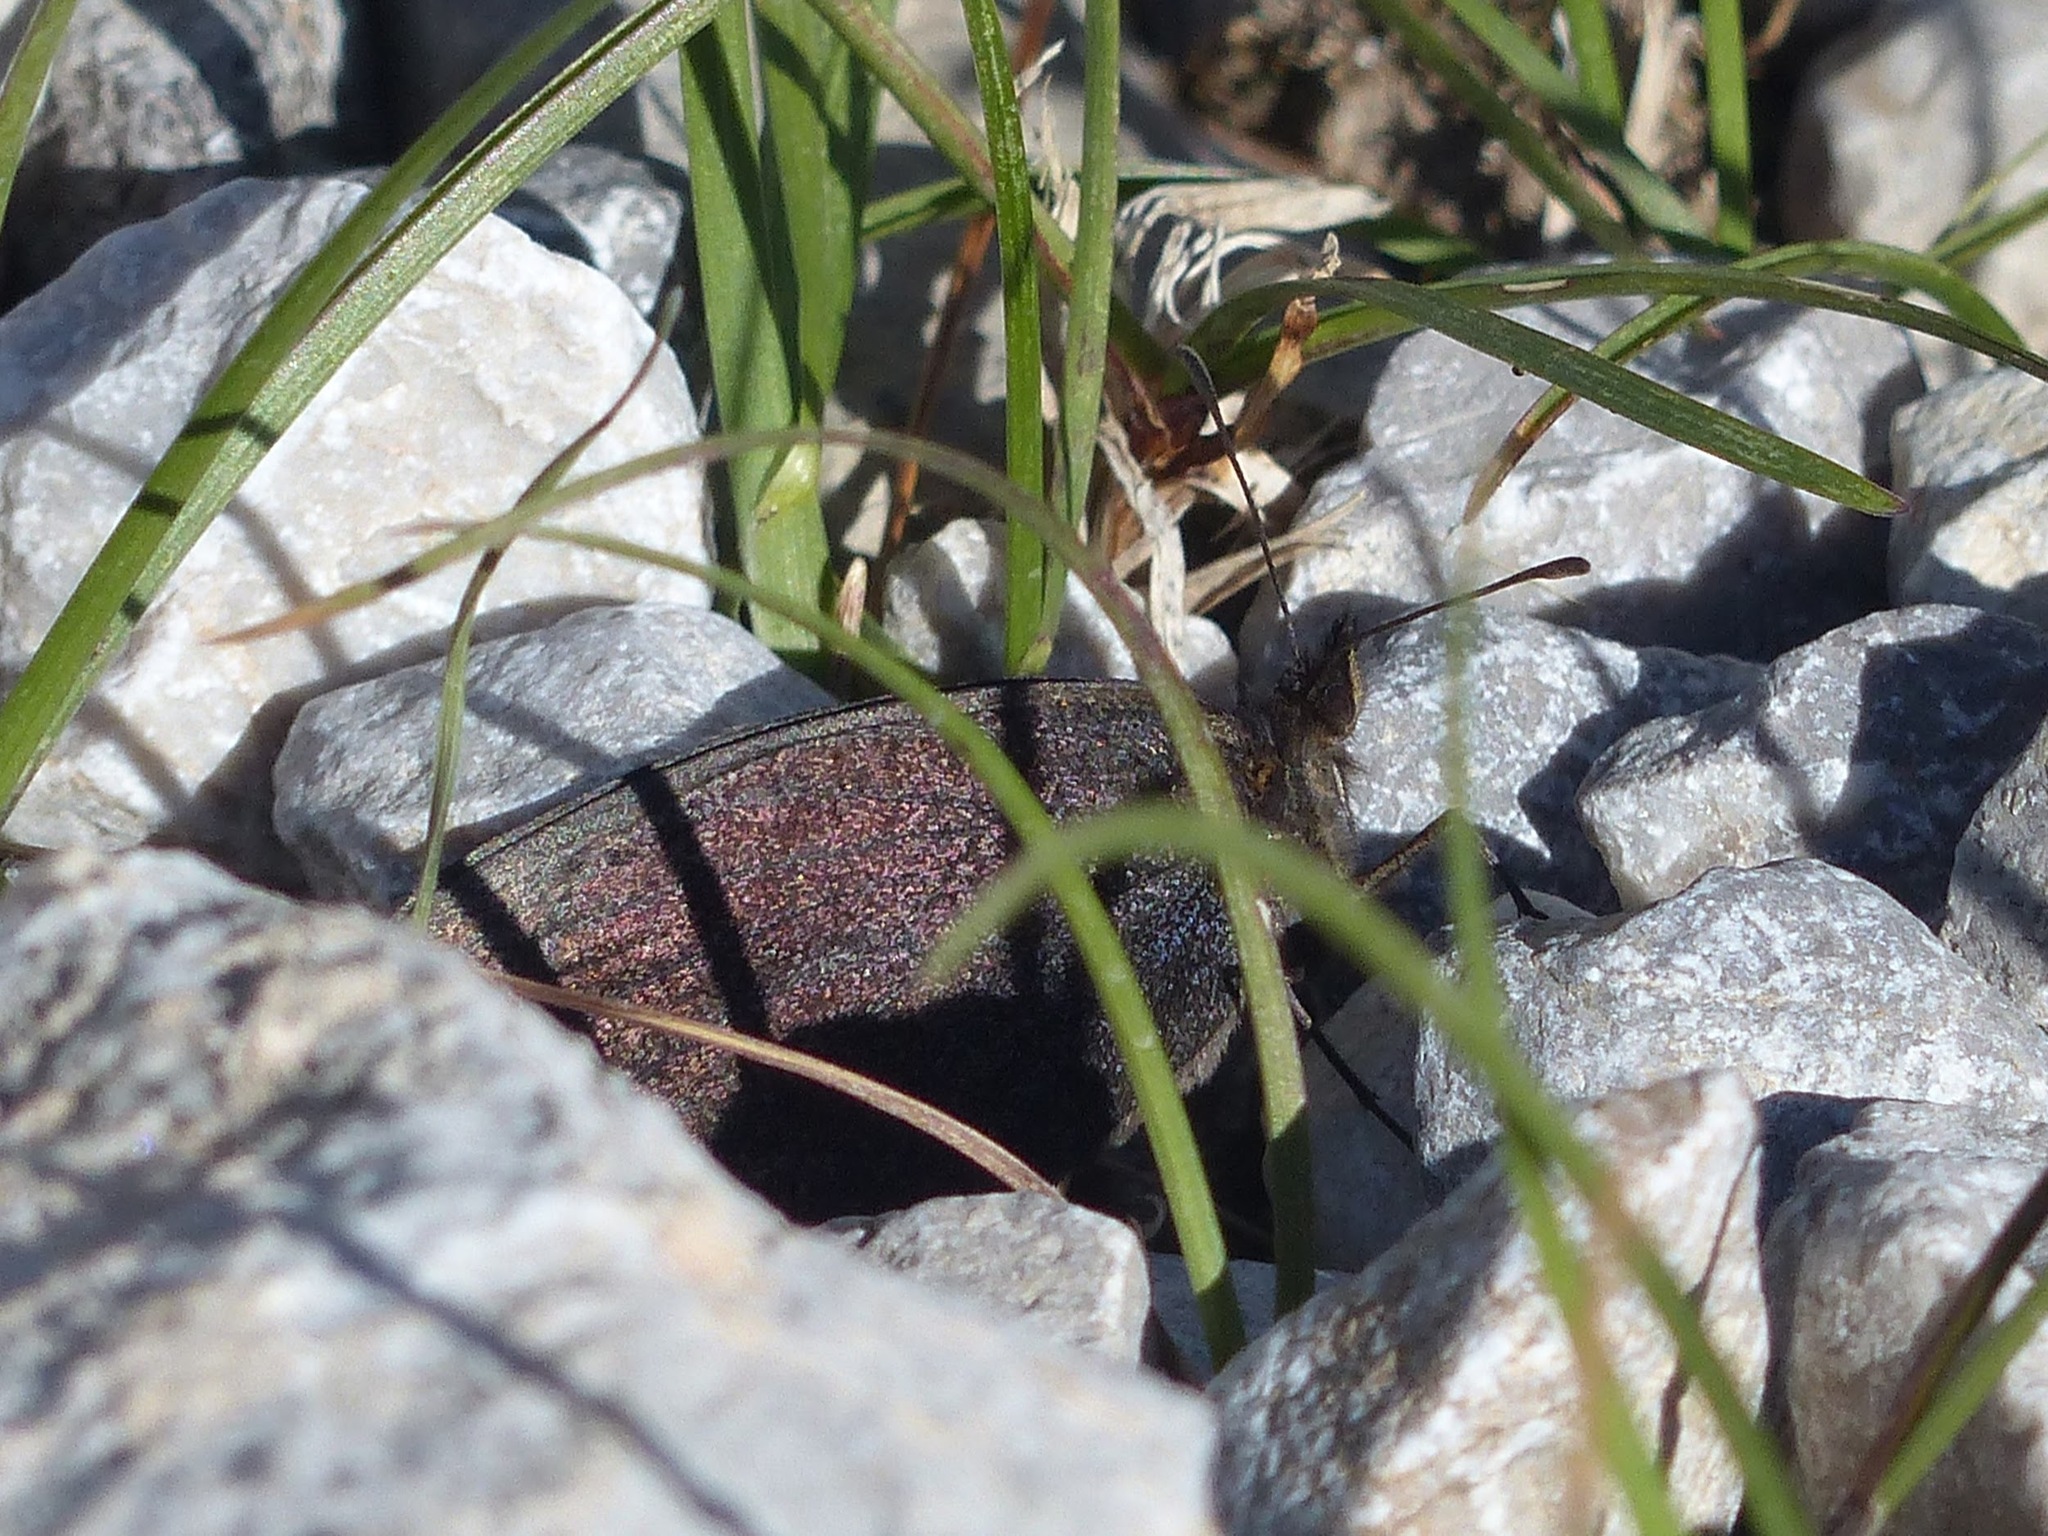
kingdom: Animalia
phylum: Arthropoda
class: Insecta
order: Lepidoptera
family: Nymphalidae
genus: Erebia
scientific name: Erebia lefebvrei
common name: Lefèbvre’s ringlet
